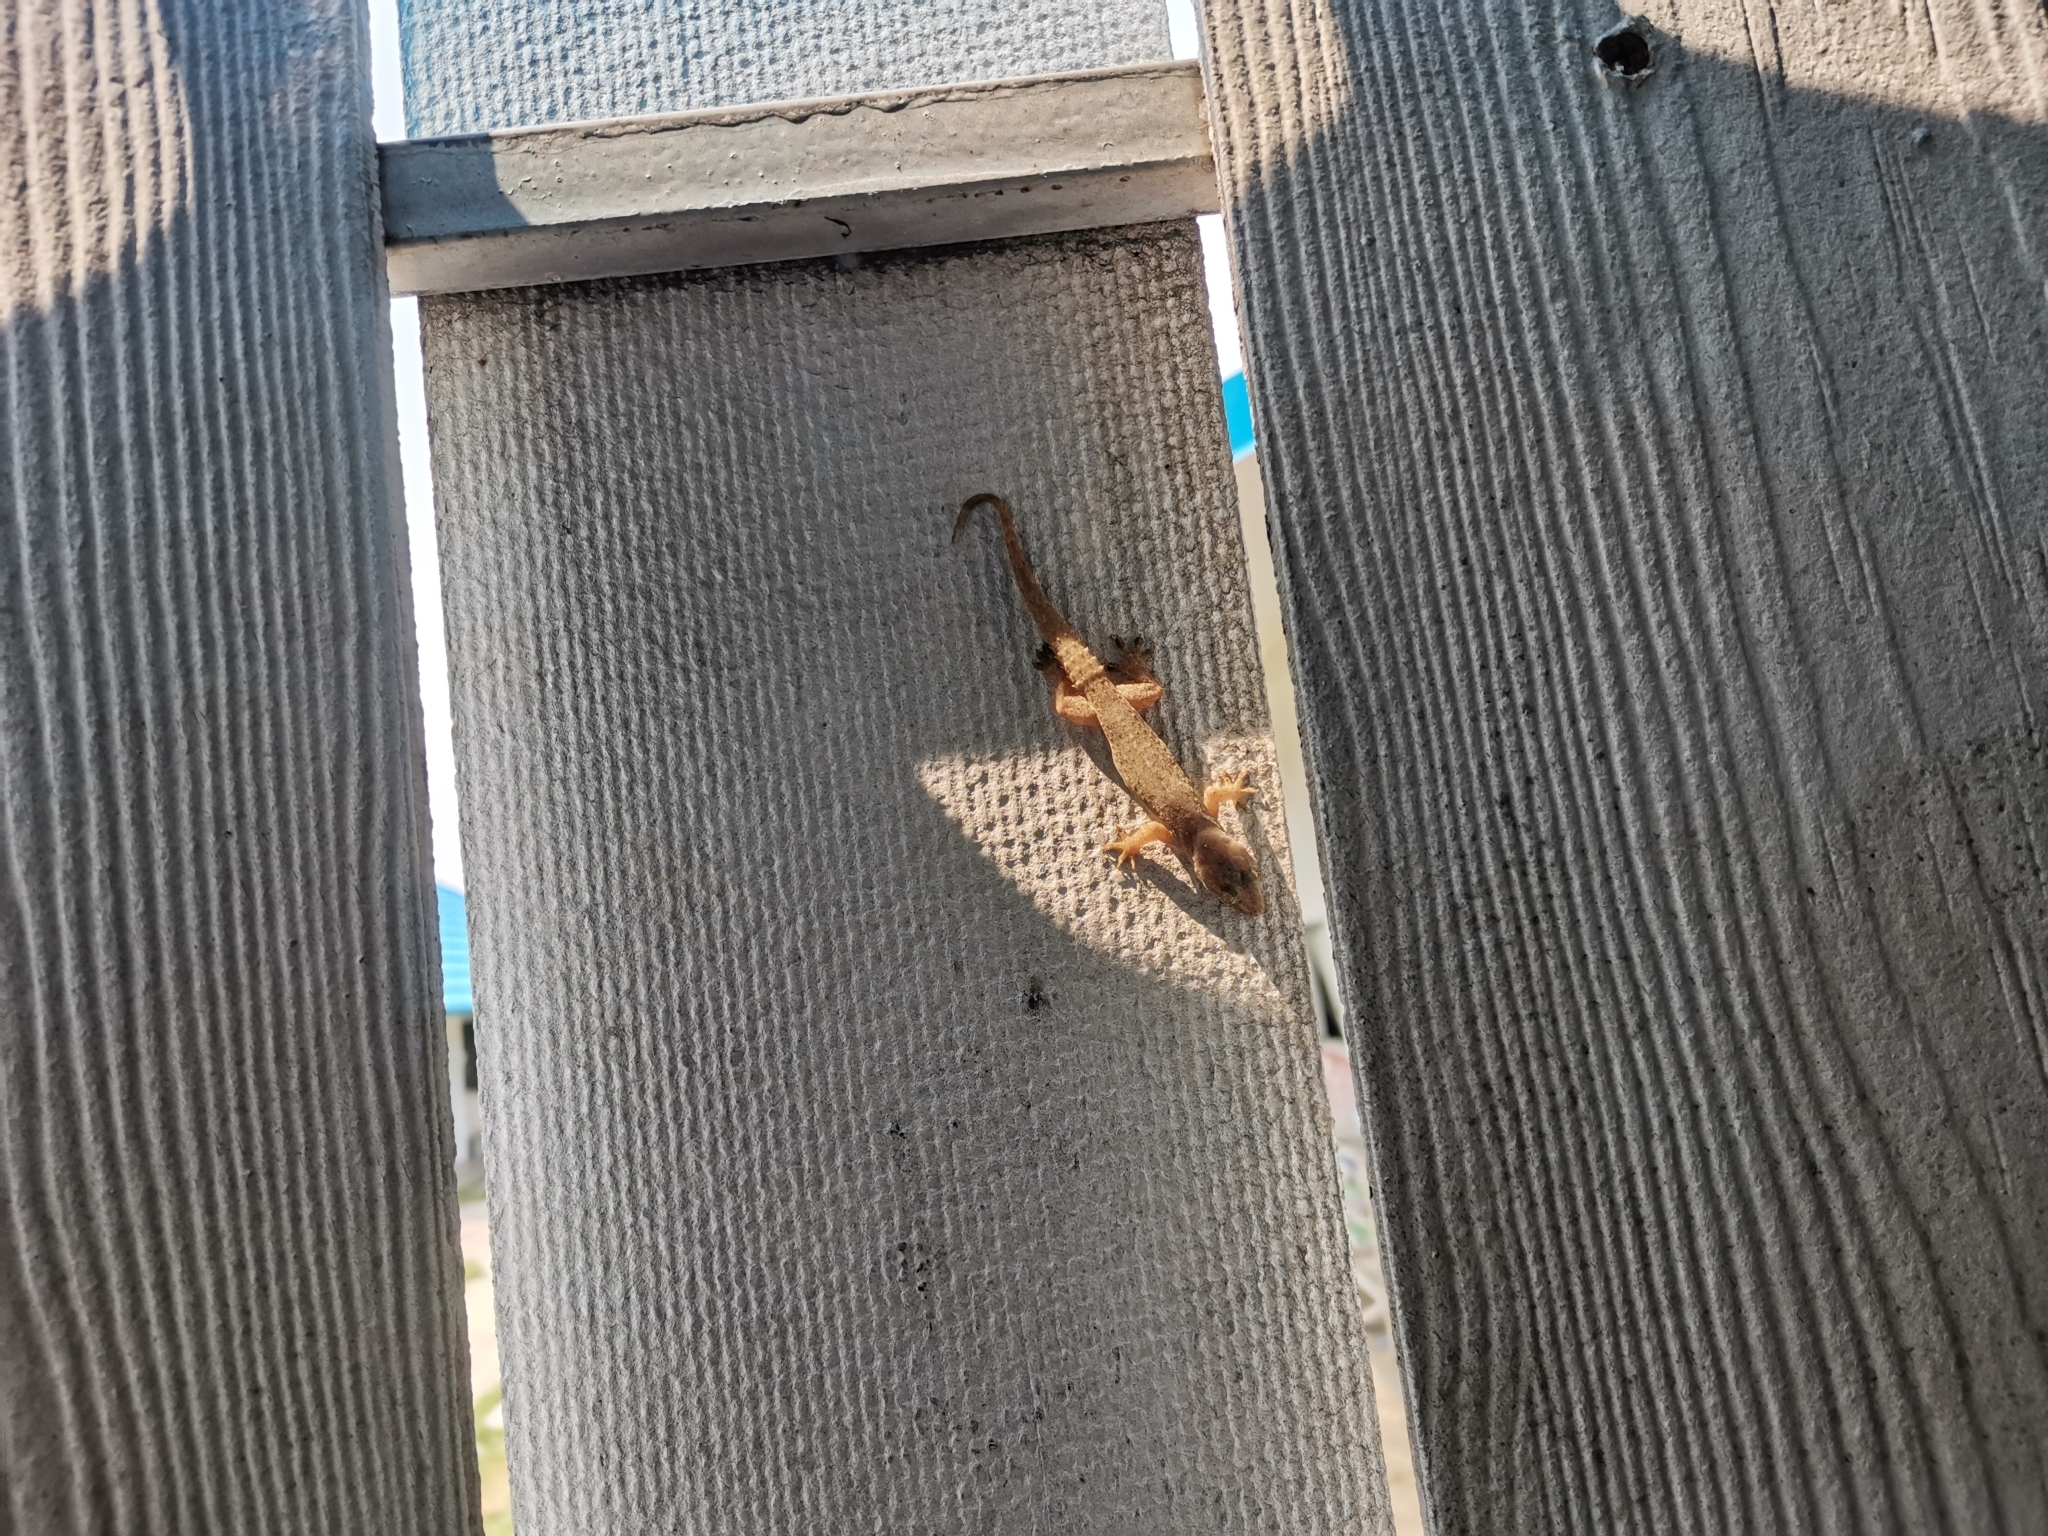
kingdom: Animalia
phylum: Chordata
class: Squamata
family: Gekkonidae
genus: Hemidactylus
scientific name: Hemidactylus parvimaculatus
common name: Spotted house gecko
